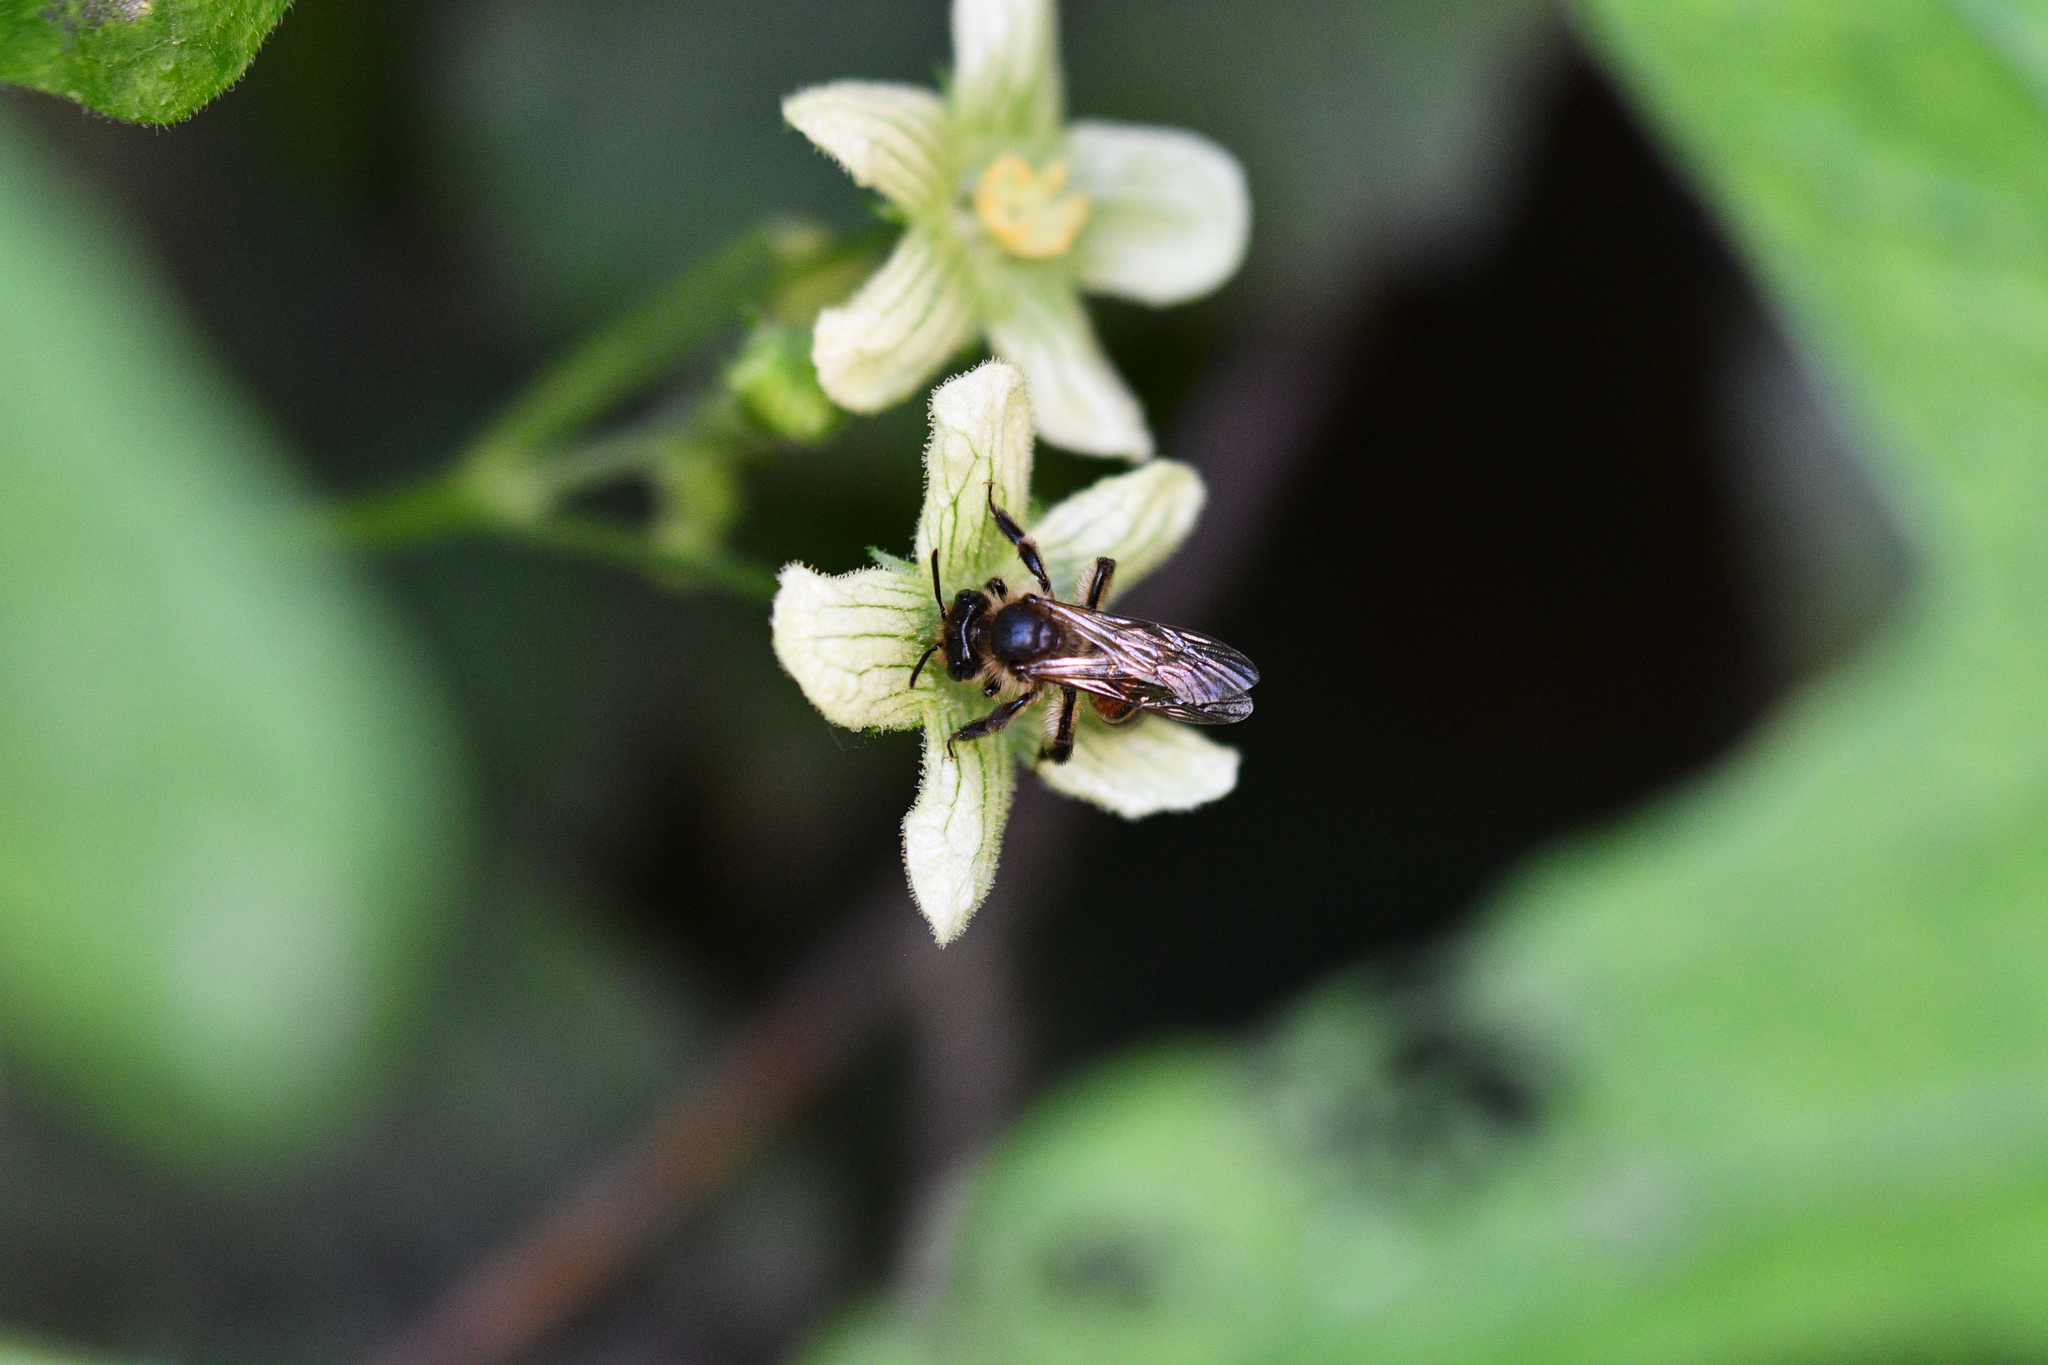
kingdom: Animalia
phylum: Arthropoda
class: Insecta
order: Hymenoptera
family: Andrenidae
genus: Andrena
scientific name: Andrena florea
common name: Bryony mining bee
